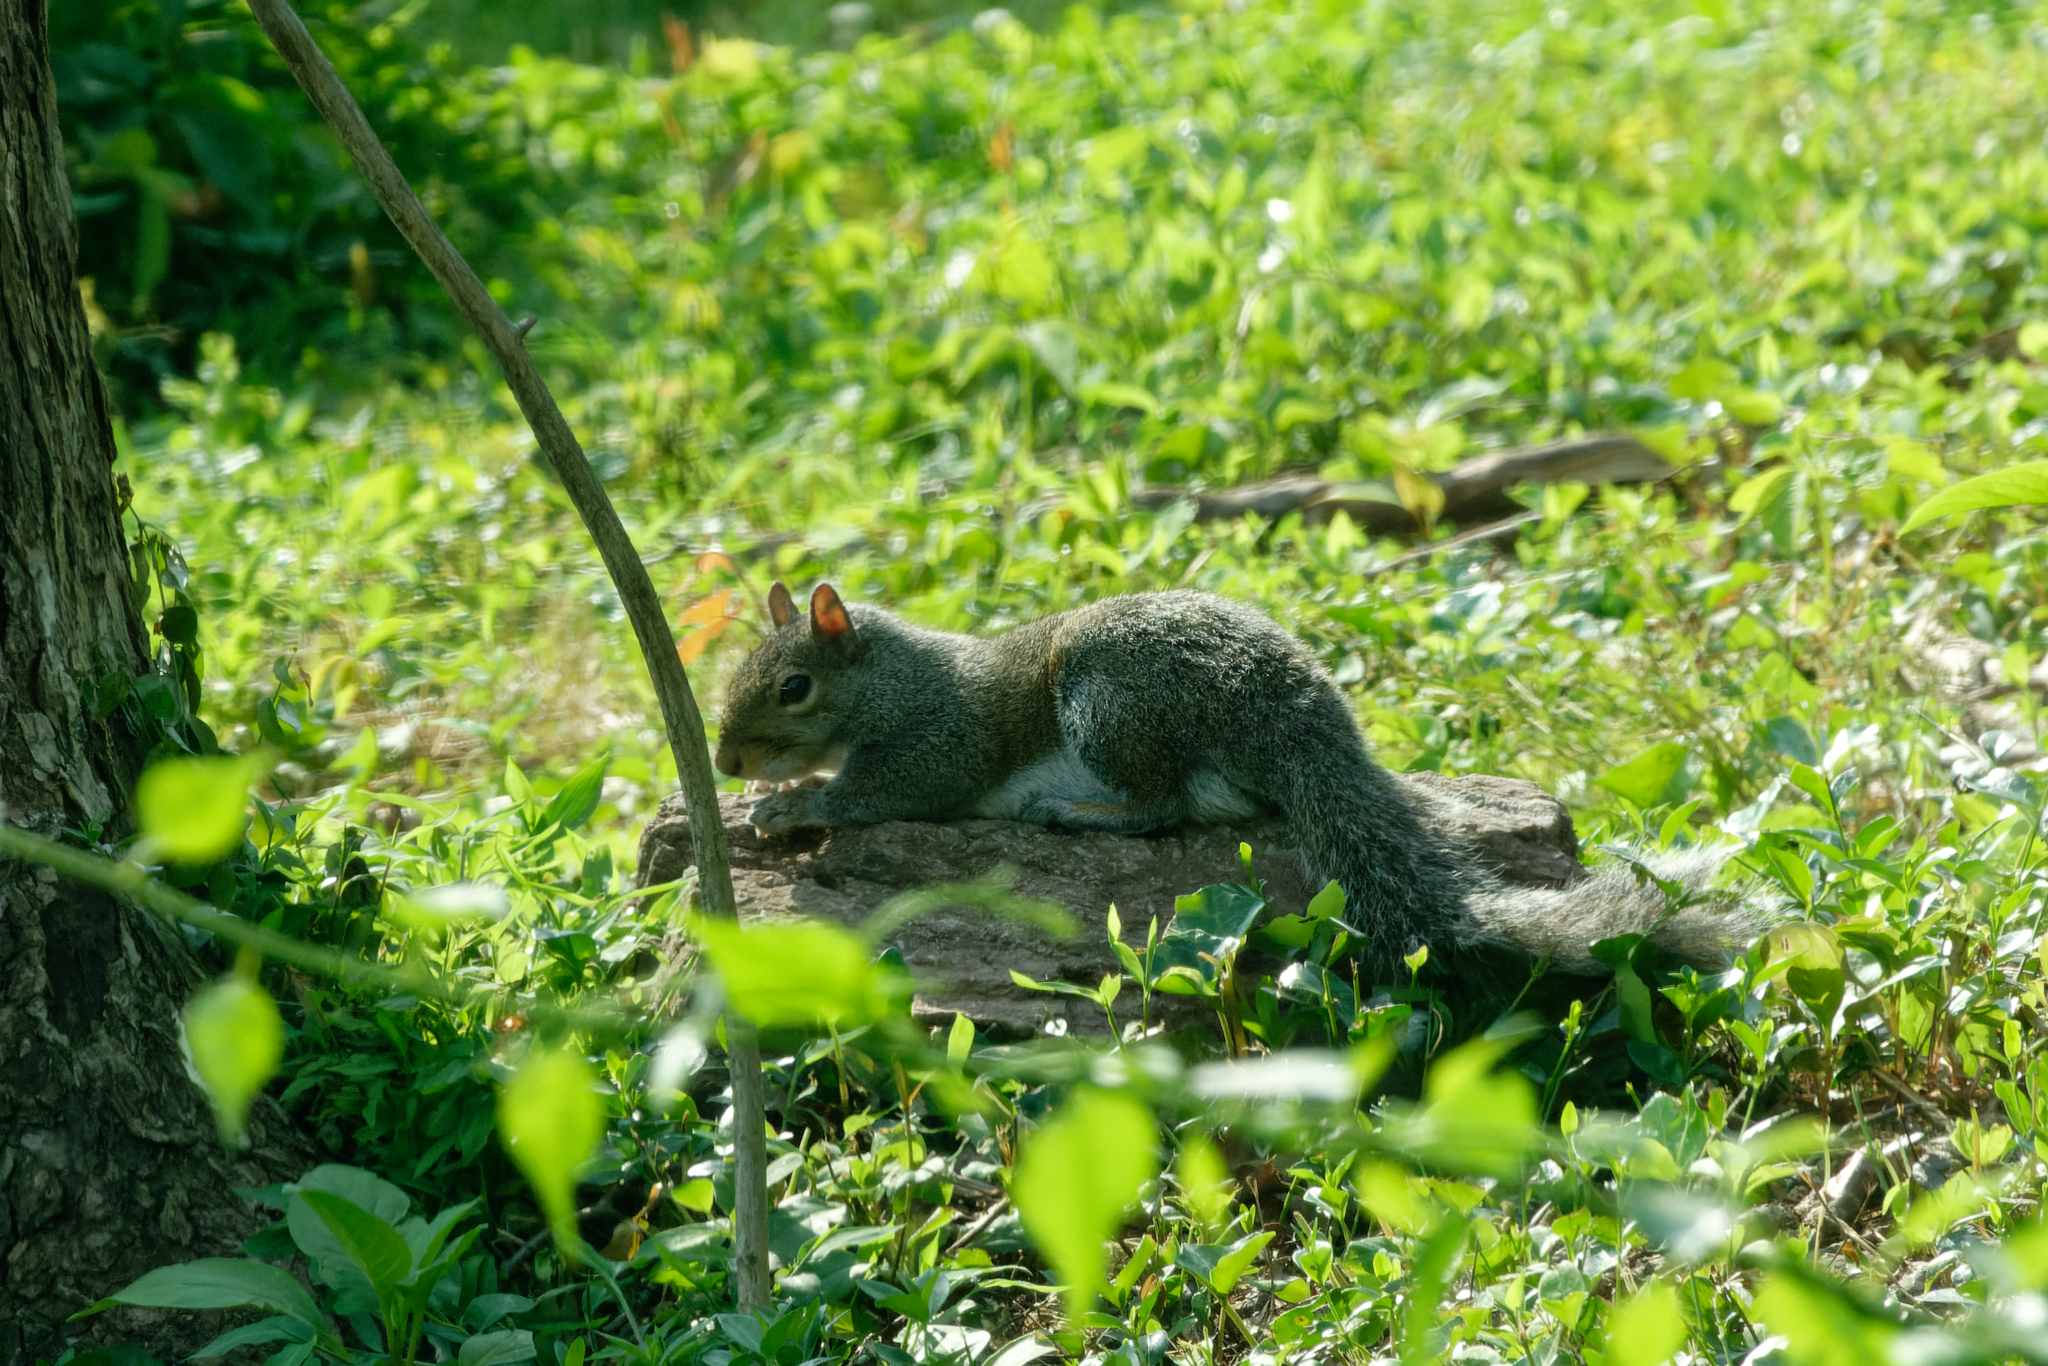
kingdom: Animalia
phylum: Chordata
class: Mammalia
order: Rodentia
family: Sciuridae
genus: Sciurus
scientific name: Sciurus carolinensis
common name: Eastern gray squirrel
